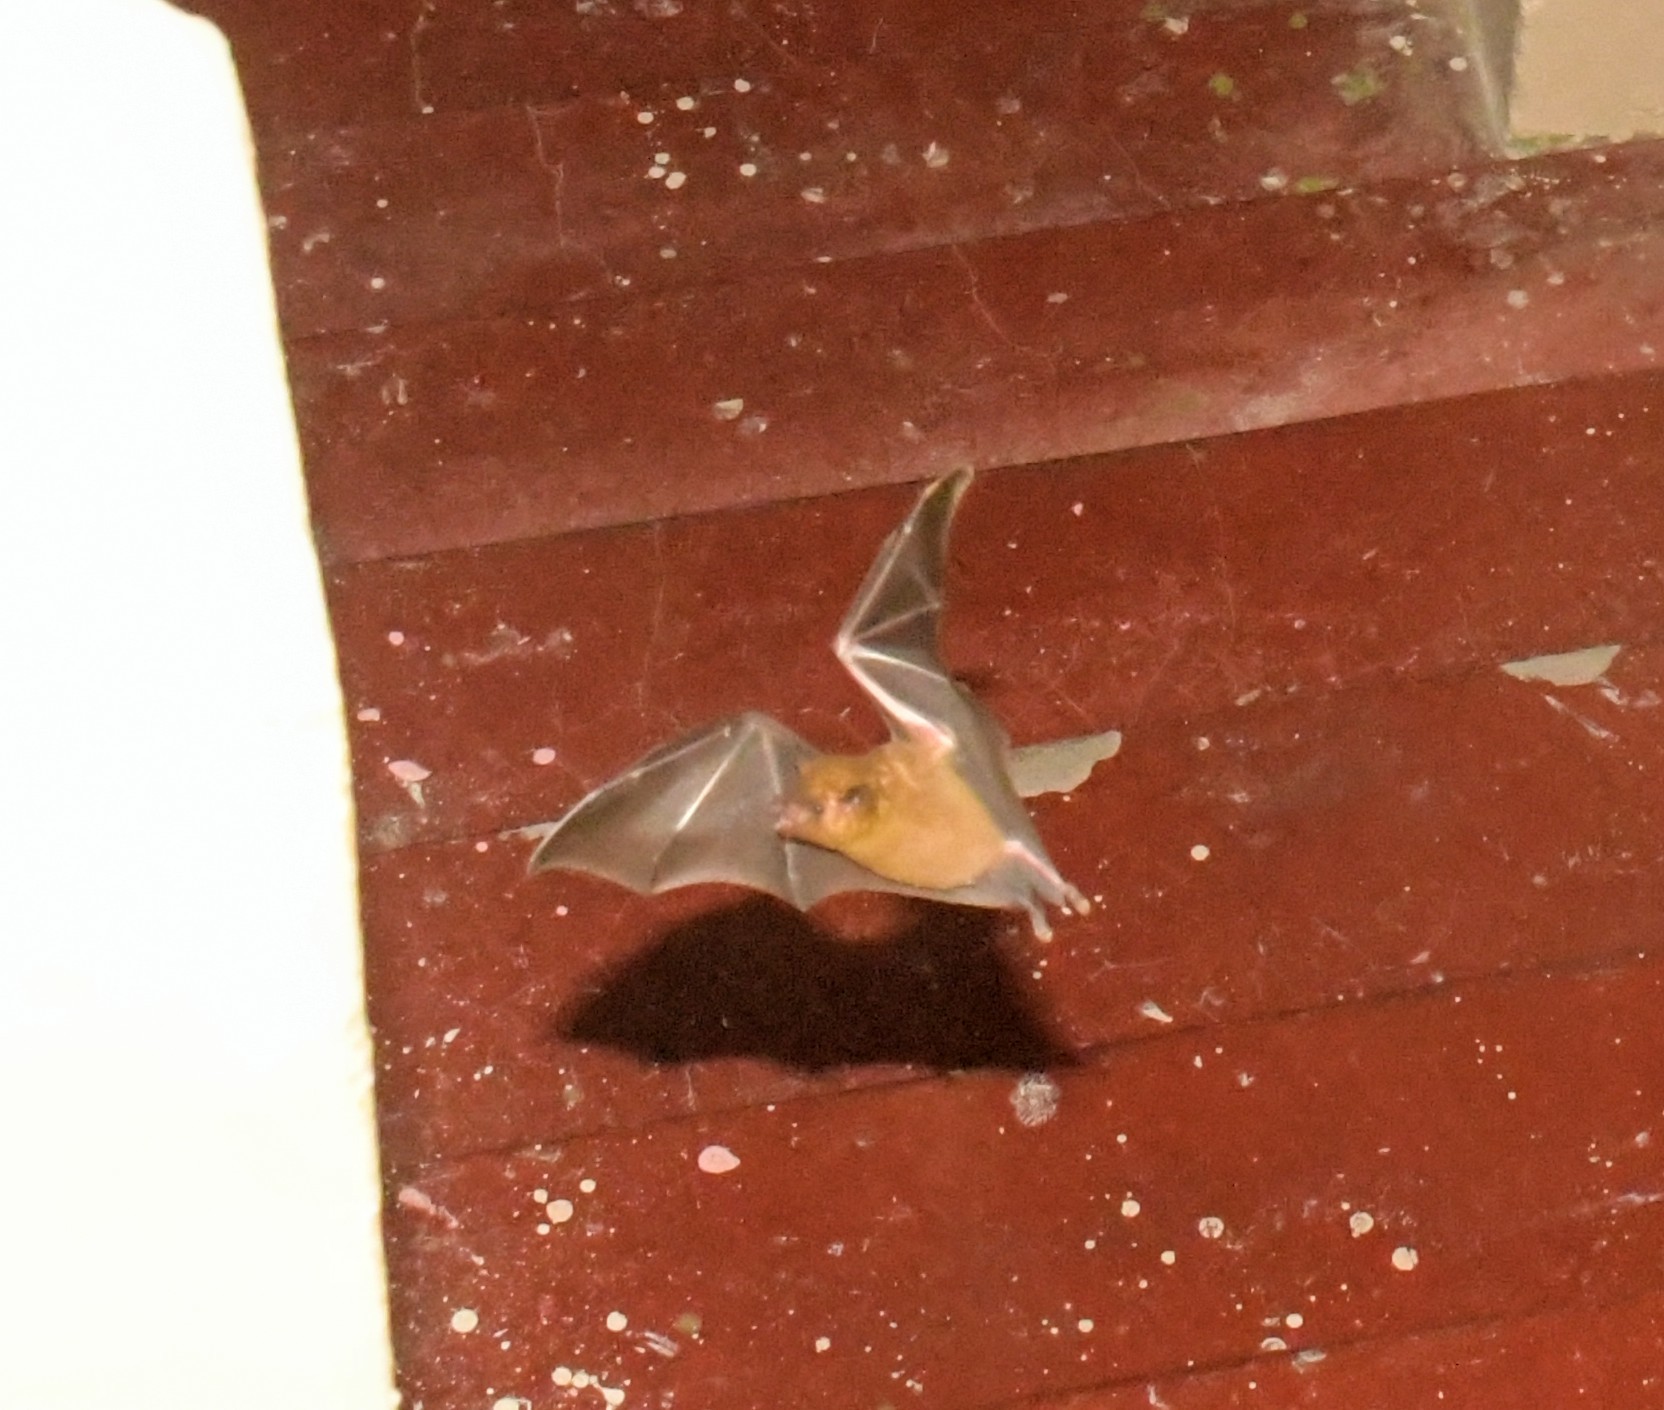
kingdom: Animalia
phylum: Chordata
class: Mammalia
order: Chiroptera
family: Phyllostomidae
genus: Glossophaga
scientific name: Glossophaga soricina
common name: Pallas's long-tongued bat
